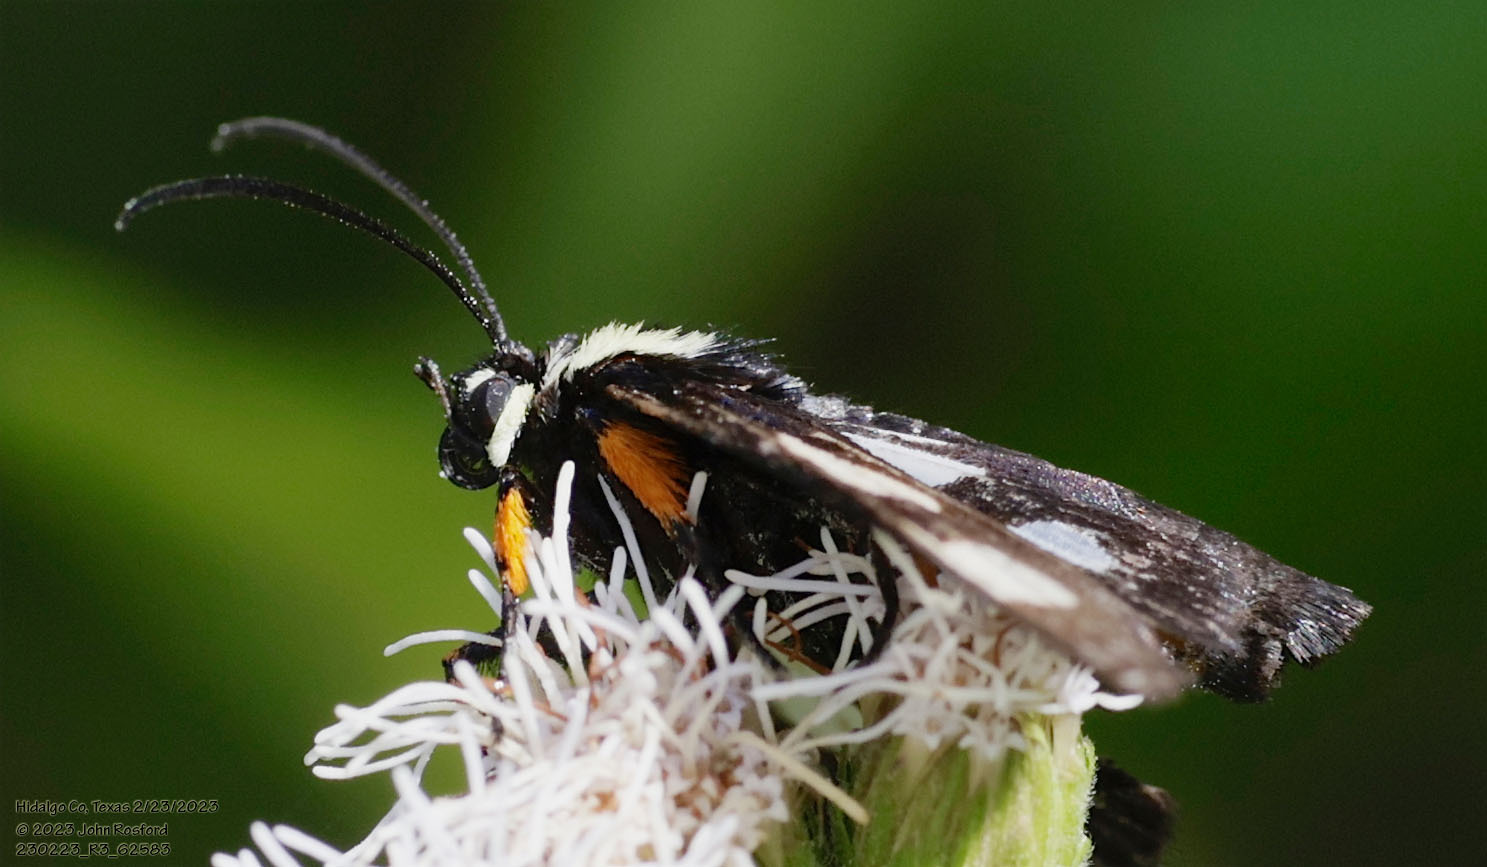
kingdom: Animalia
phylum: Arthropoda
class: Insecta
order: Lepidoptera
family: Noctuidae
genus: Alypia
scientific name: Alypia disparata
